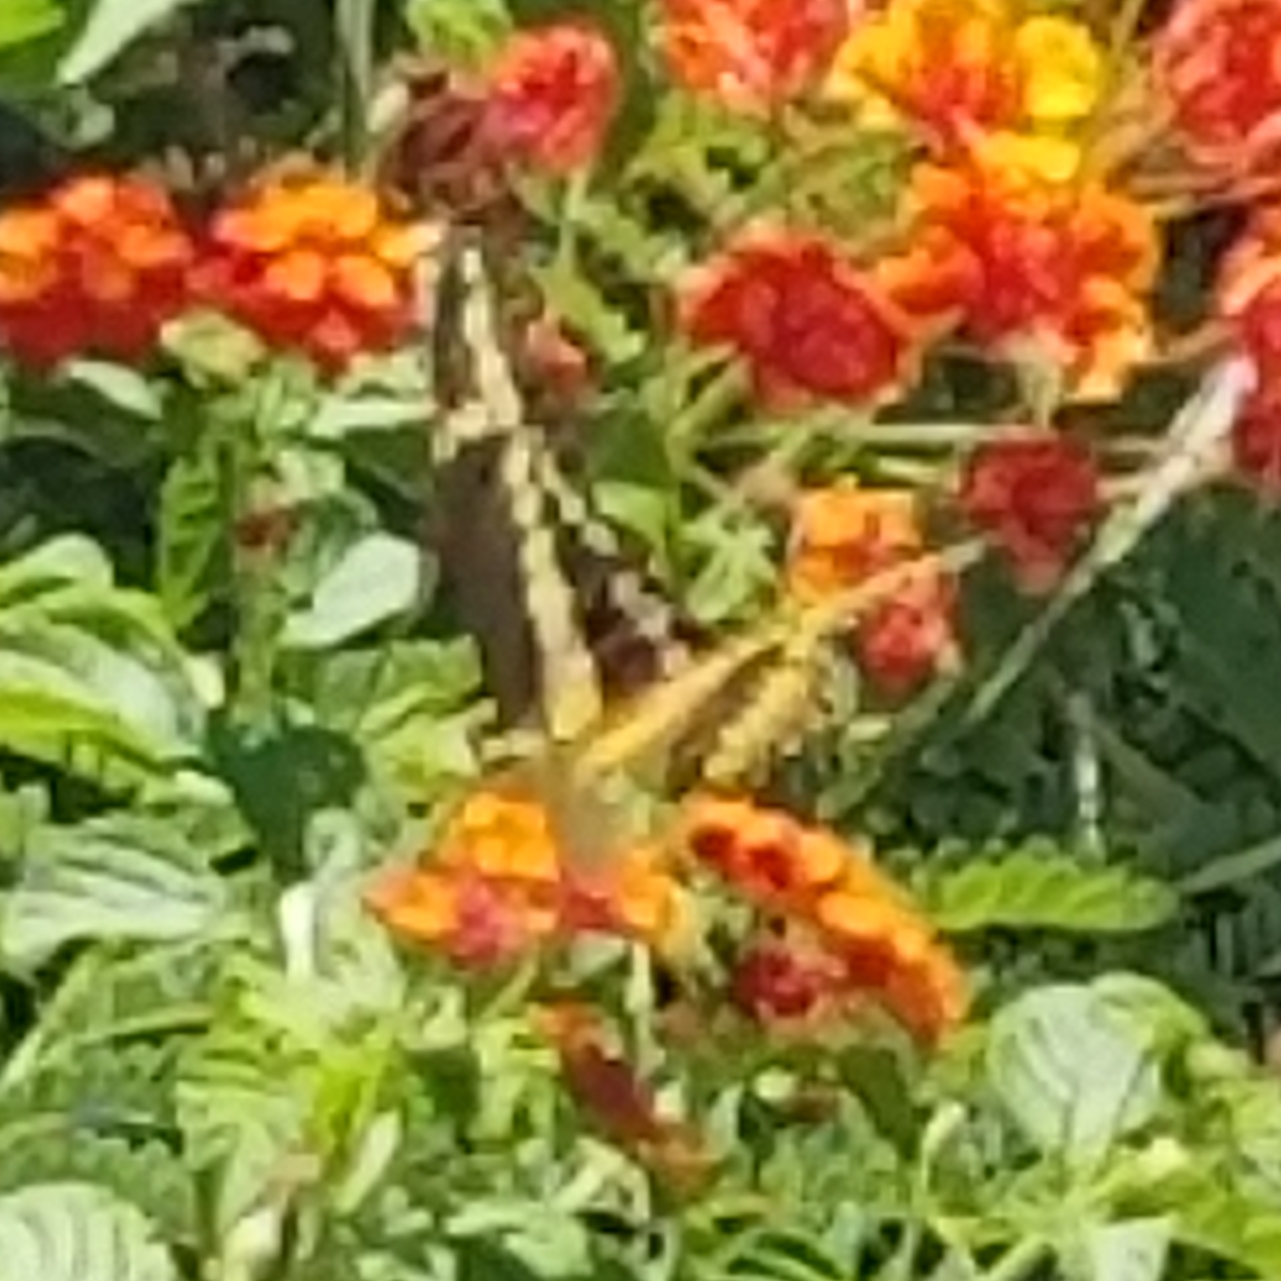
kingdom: Animalia
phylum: Arthropoda
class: Insecta
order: Lepidoptera
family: Papilionidae
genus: Papilio
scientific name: Papilio rumiko
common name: Western giant swallowtail
